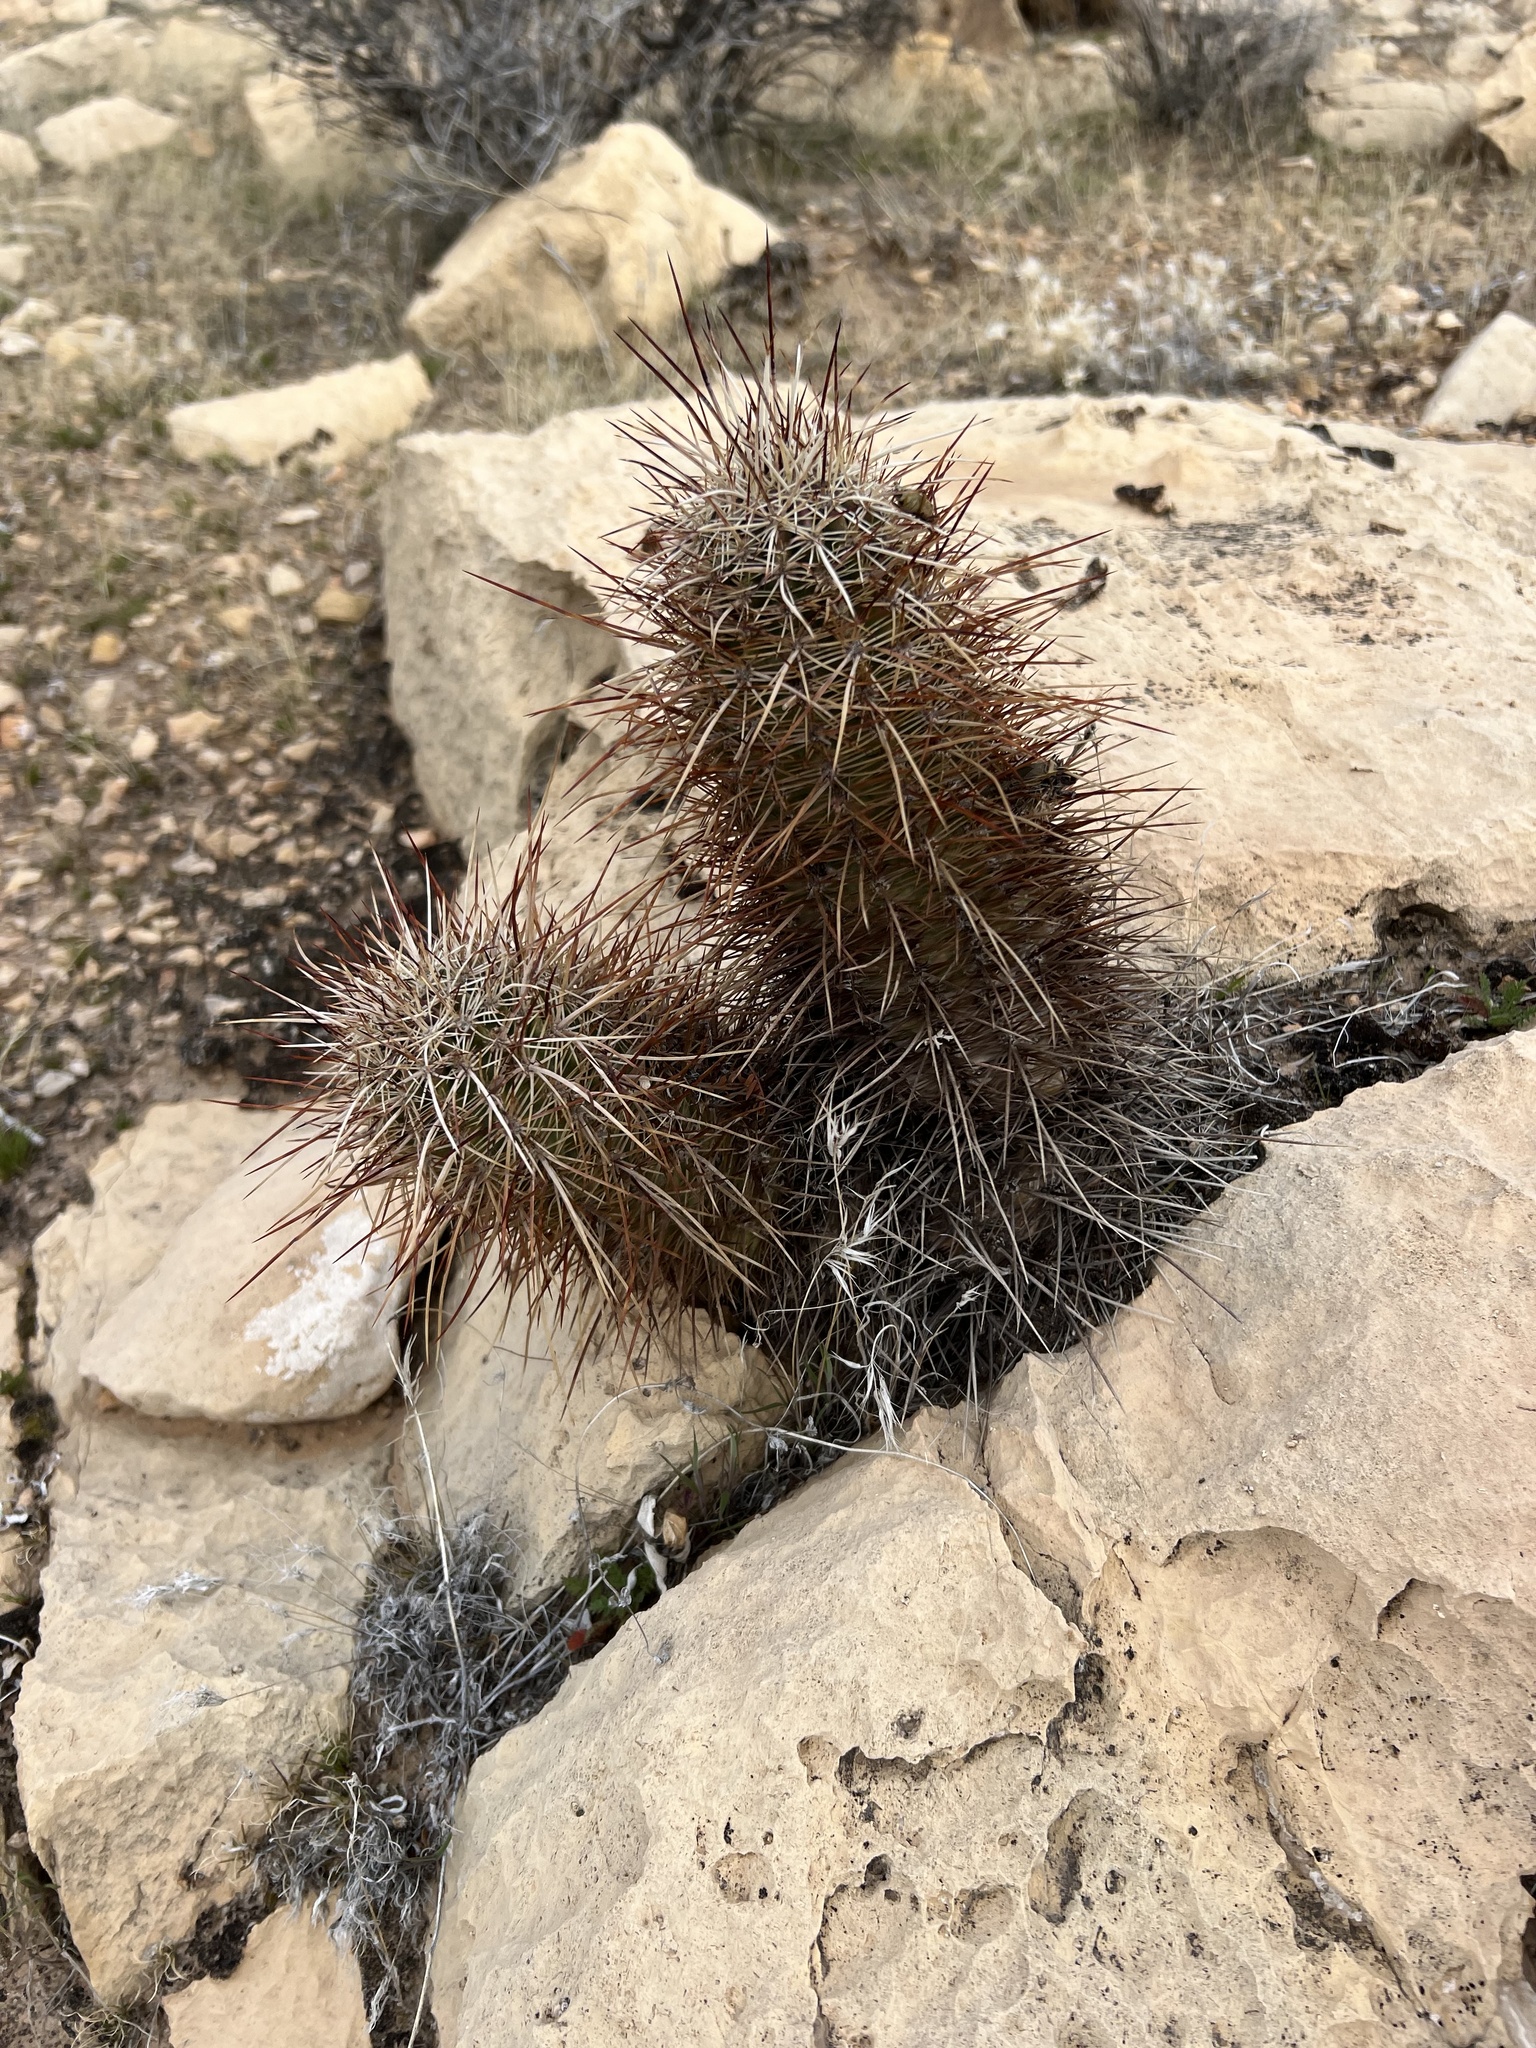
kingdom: Plantae
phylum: Tracheophyta
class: Magnoliopsida
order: Caryophyllales
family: Cactaceae
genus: Echinocereus
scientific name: Echinocereus engelmannii
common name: Engelmann's hedgehog cactus
